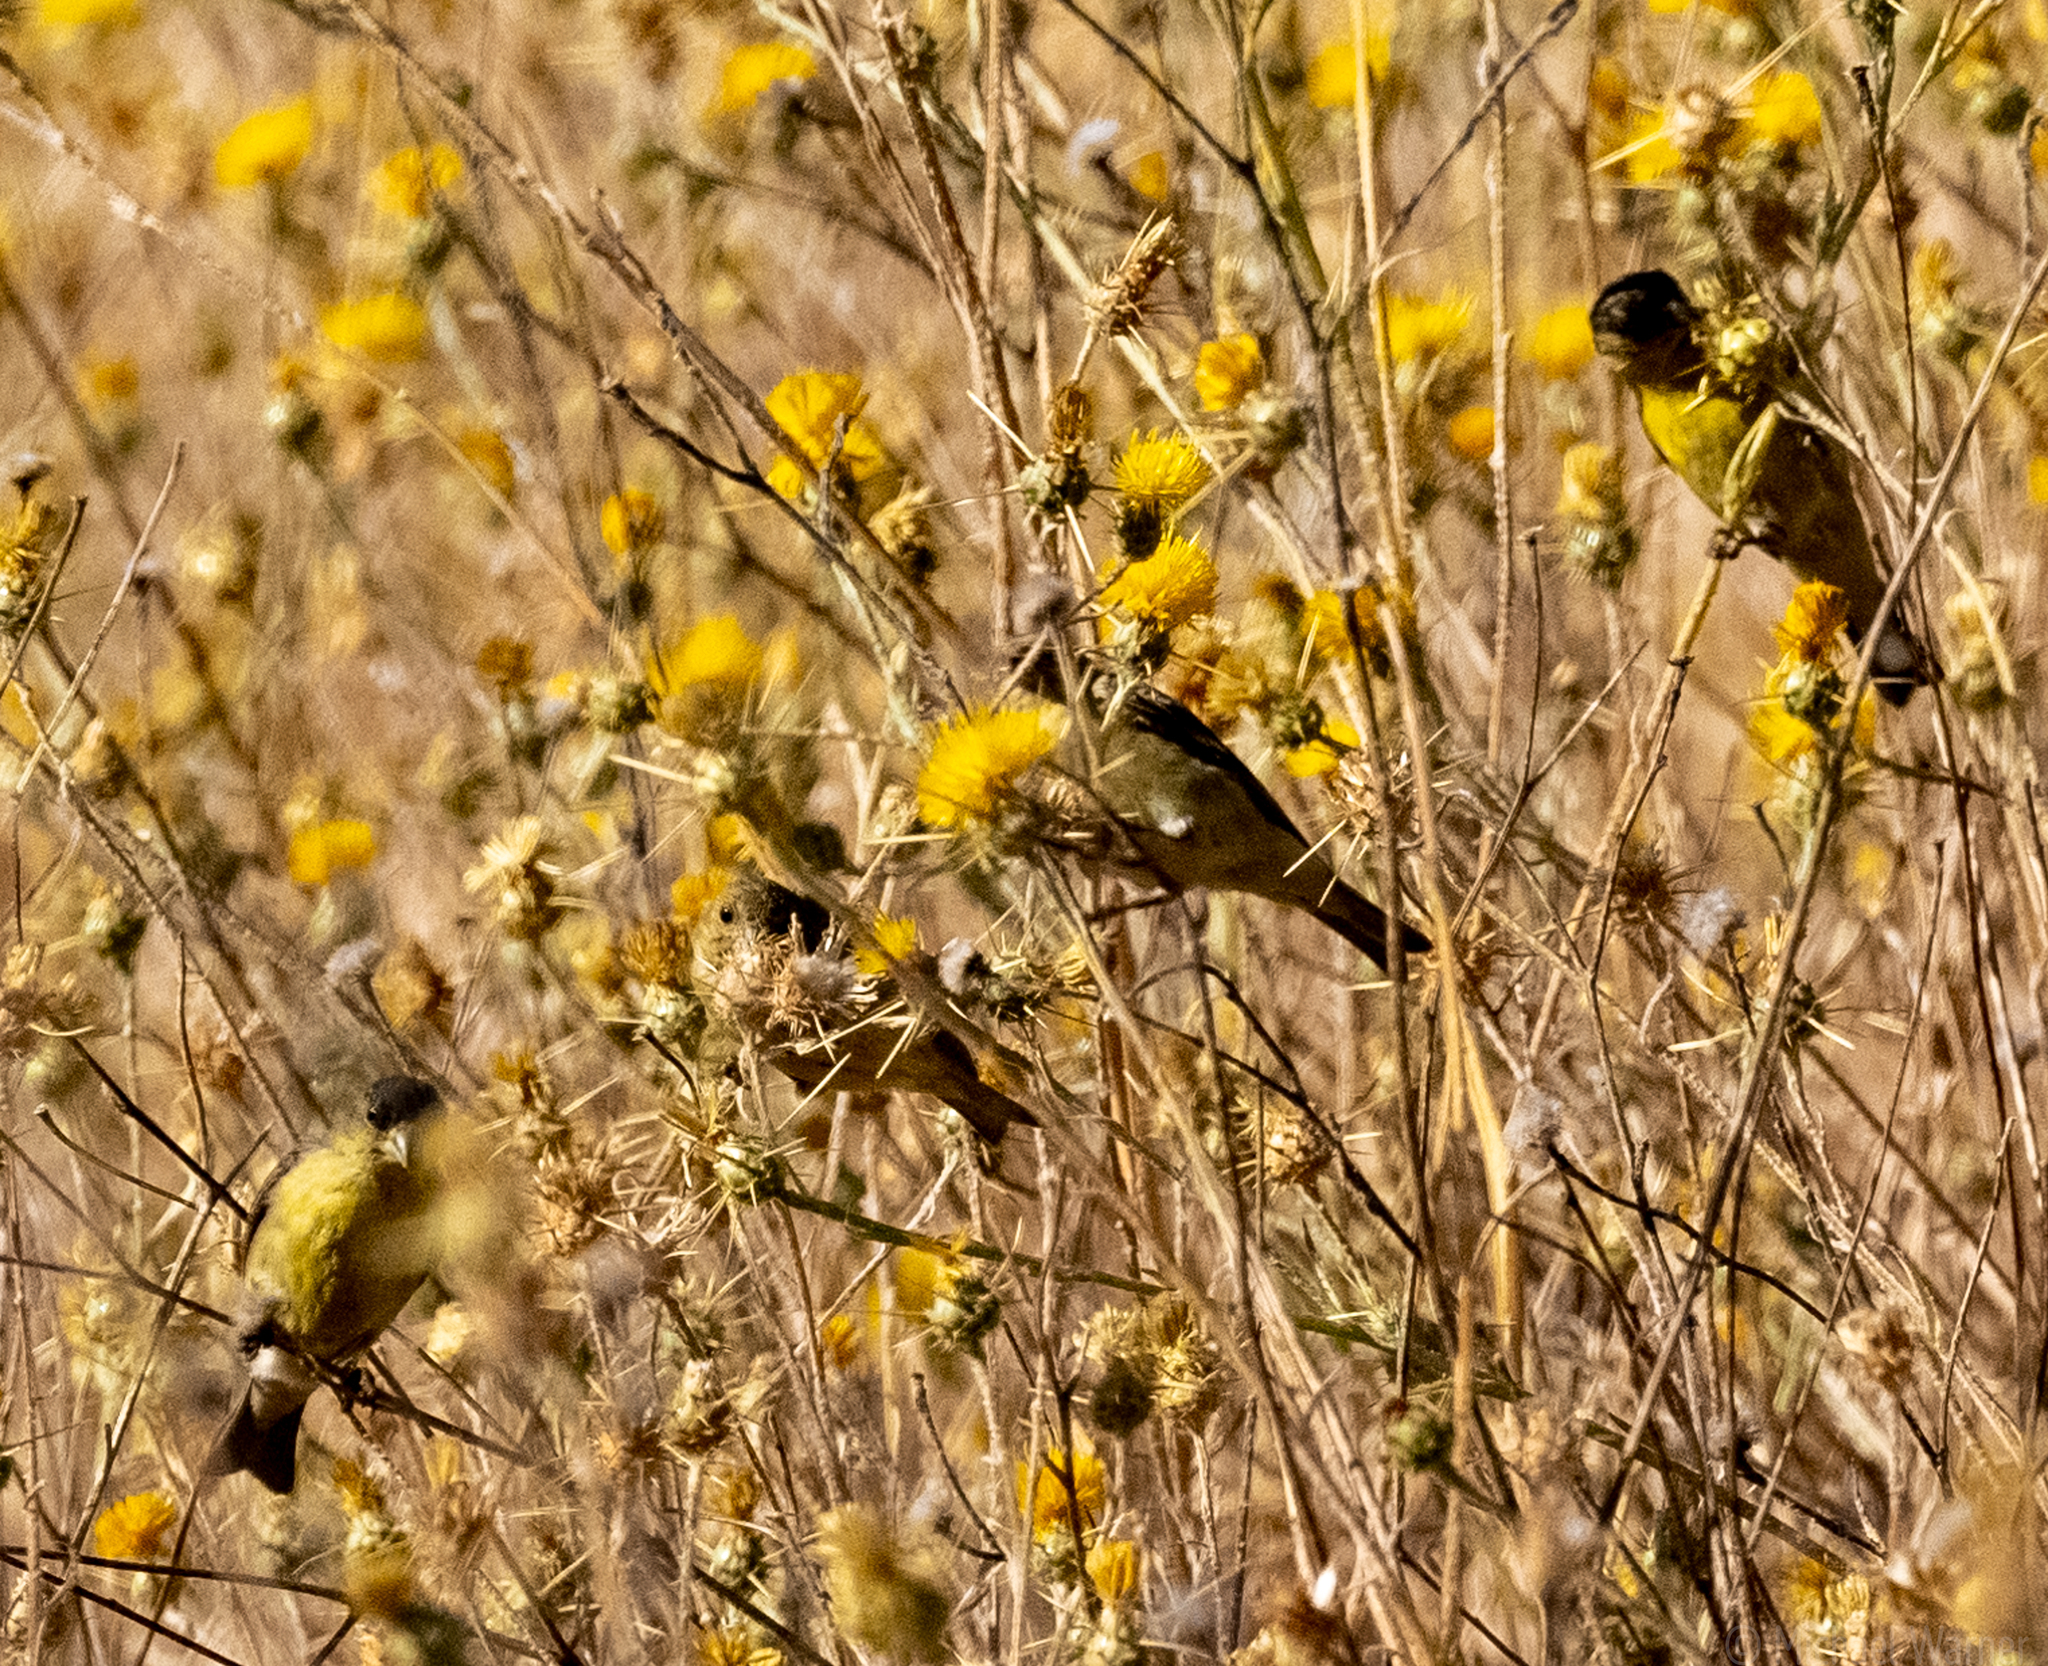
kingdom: Animalia
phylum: Chordata
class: Aves
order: Passeriformes
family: Fringillidae
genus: Spinus
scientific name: Spinus psaltria
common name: Lesser goldfinch
